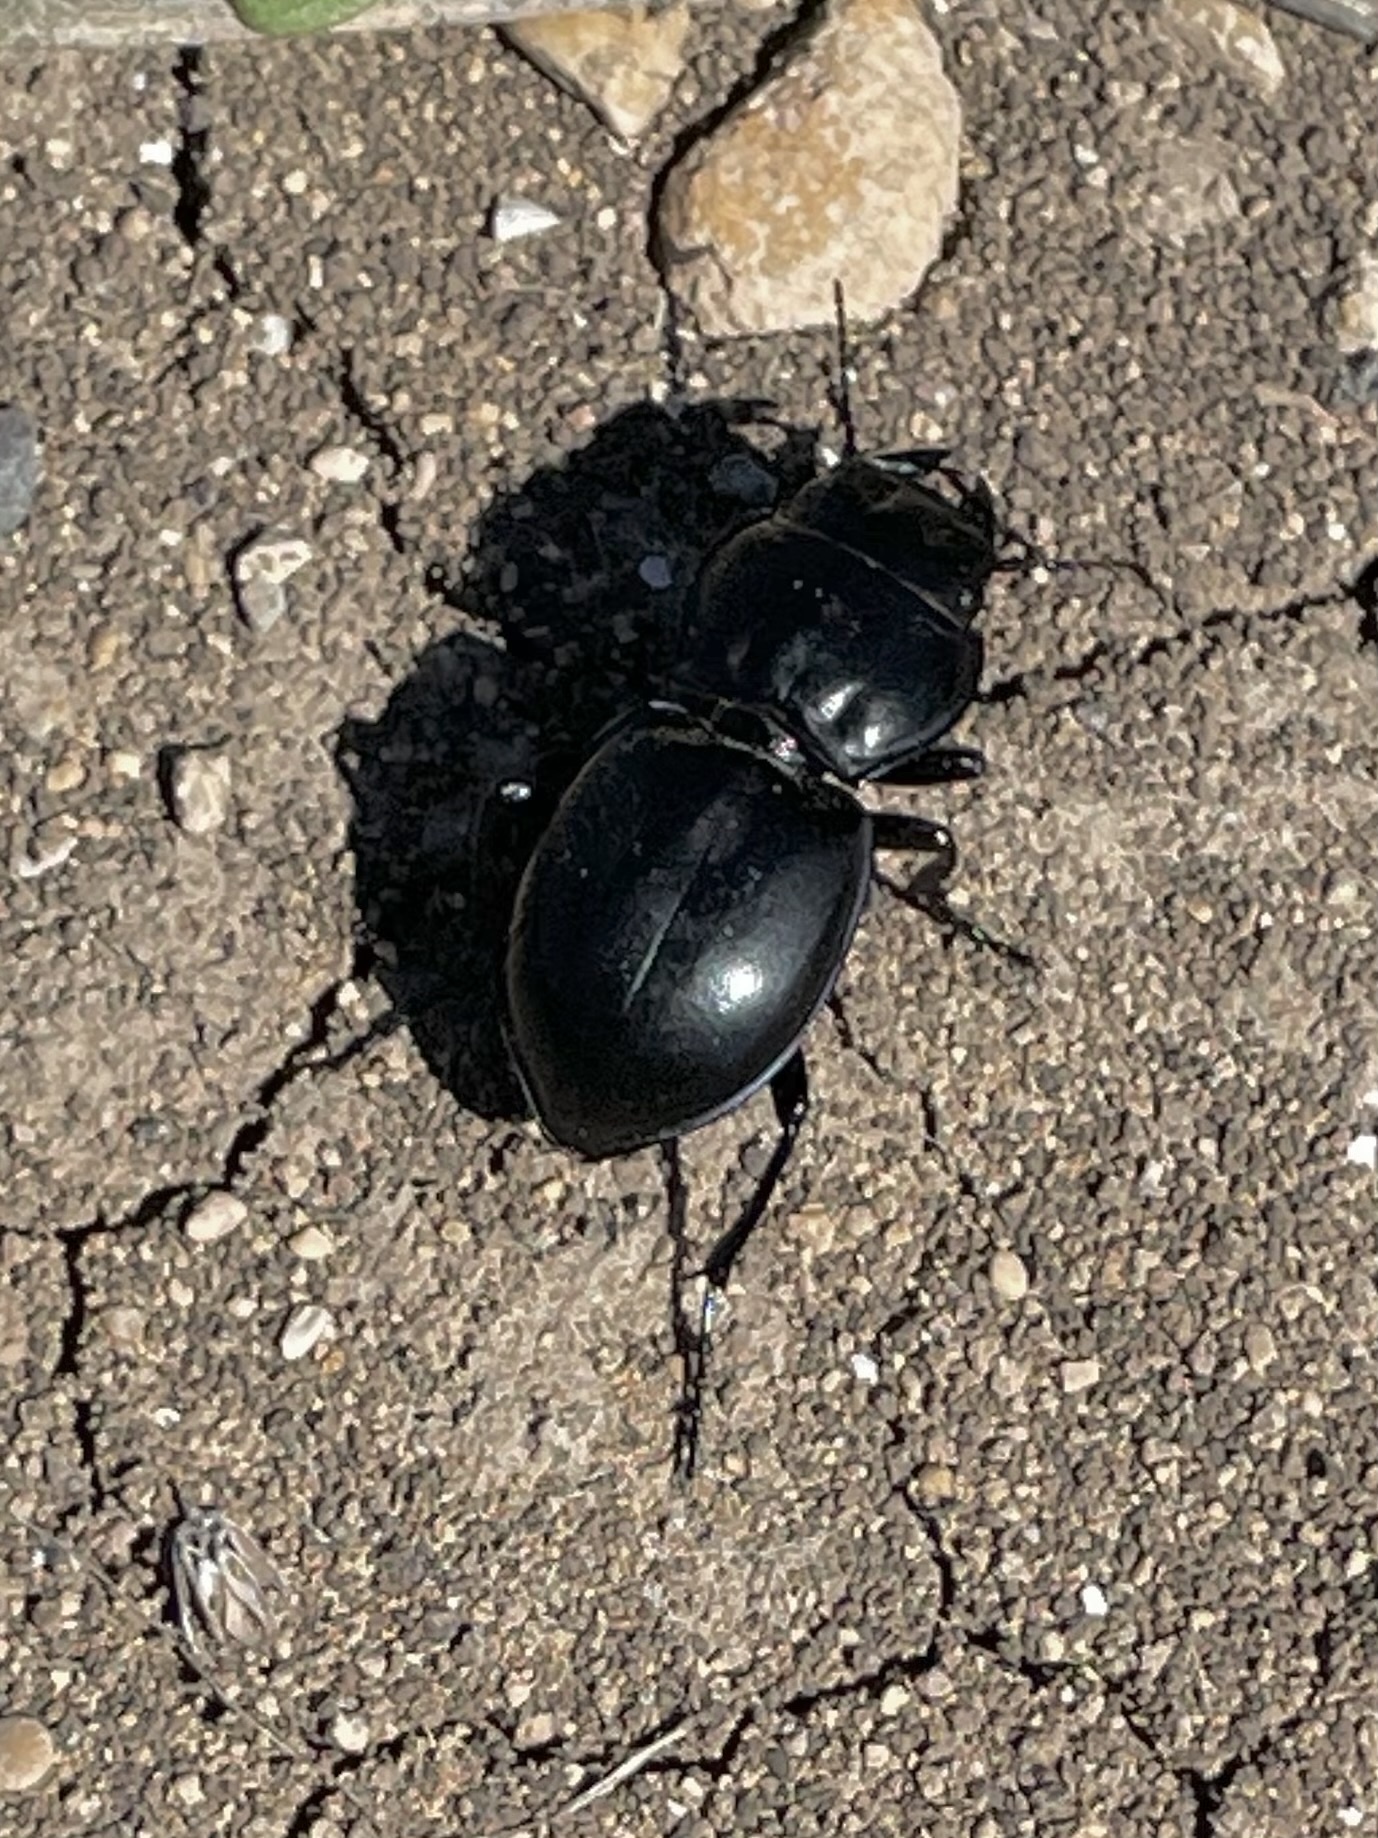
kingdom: Animalia
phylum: Arthropoda
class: Insecta
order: Coleoptera
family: Carabidae
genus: Pasimachus
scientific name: Pasimachus californicus
